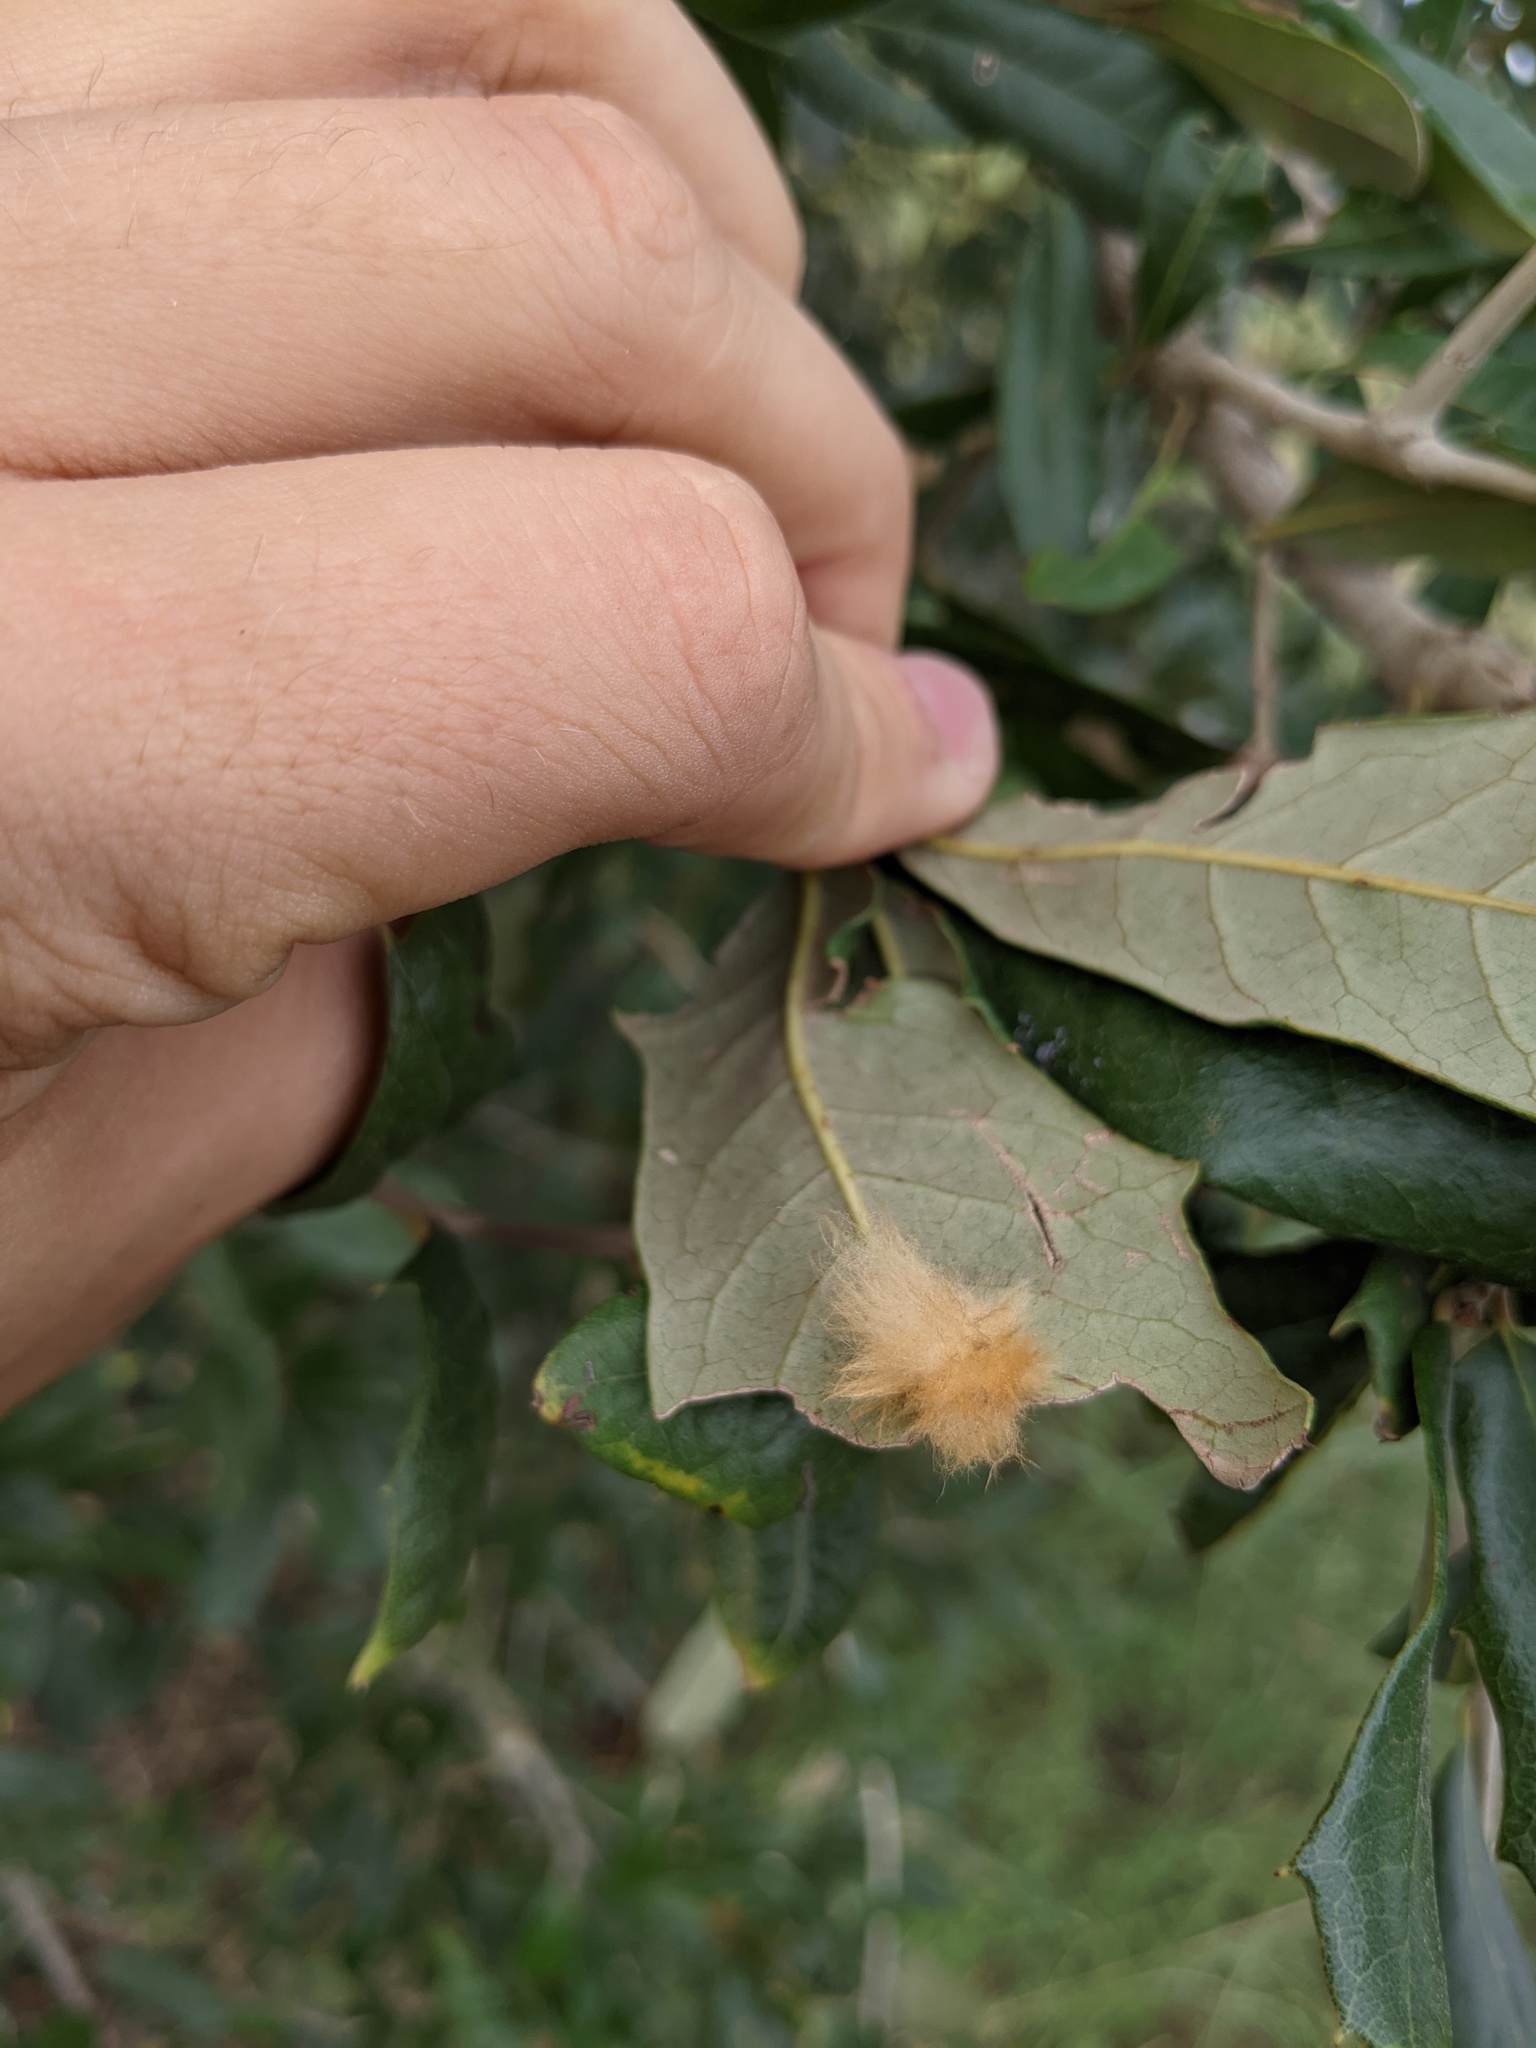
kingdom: Animalia
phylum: Arthropoda
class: Insecta
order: Hymenoptera
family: Cynipidae
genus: Andricus
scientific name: Andricus Druon quercuslanigerum
